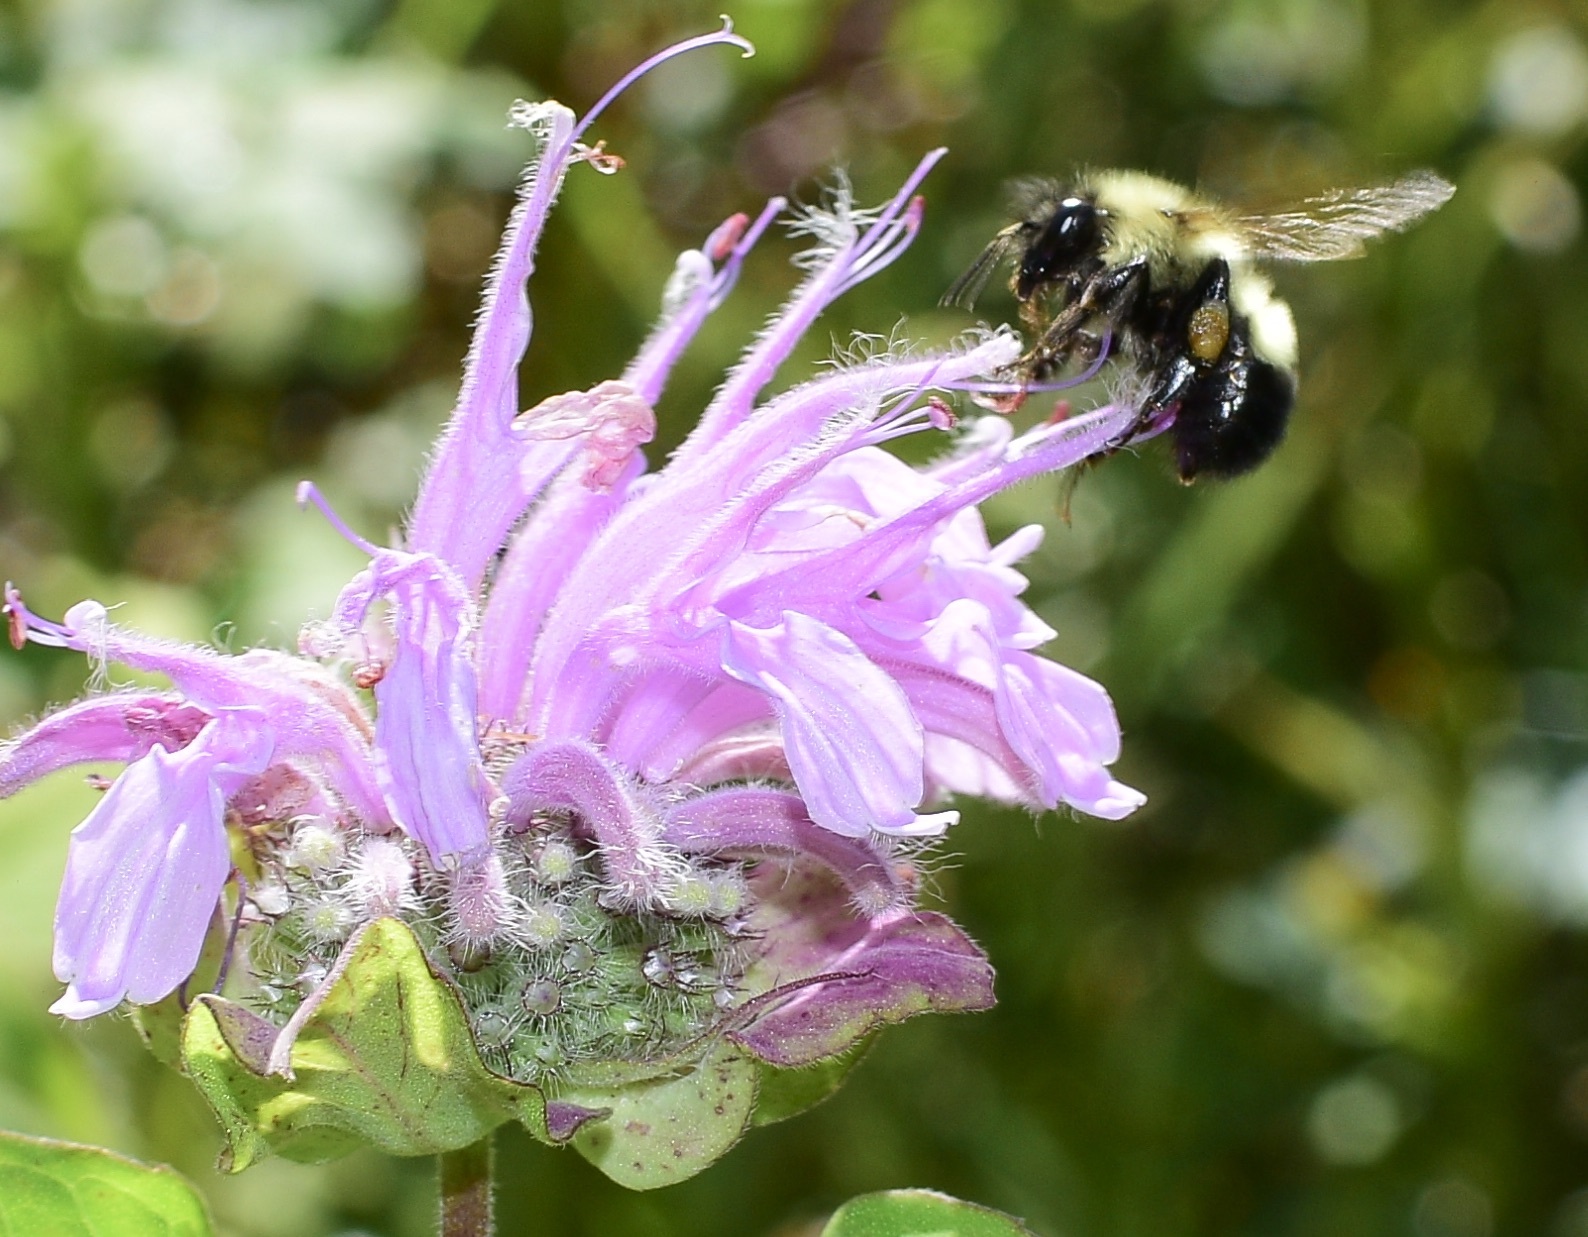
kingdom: Animalia
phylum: Arthropoda
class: Insecta
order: Hymenoptera
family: Apidae
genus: Pyrobombus
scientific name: Pyrobombus
